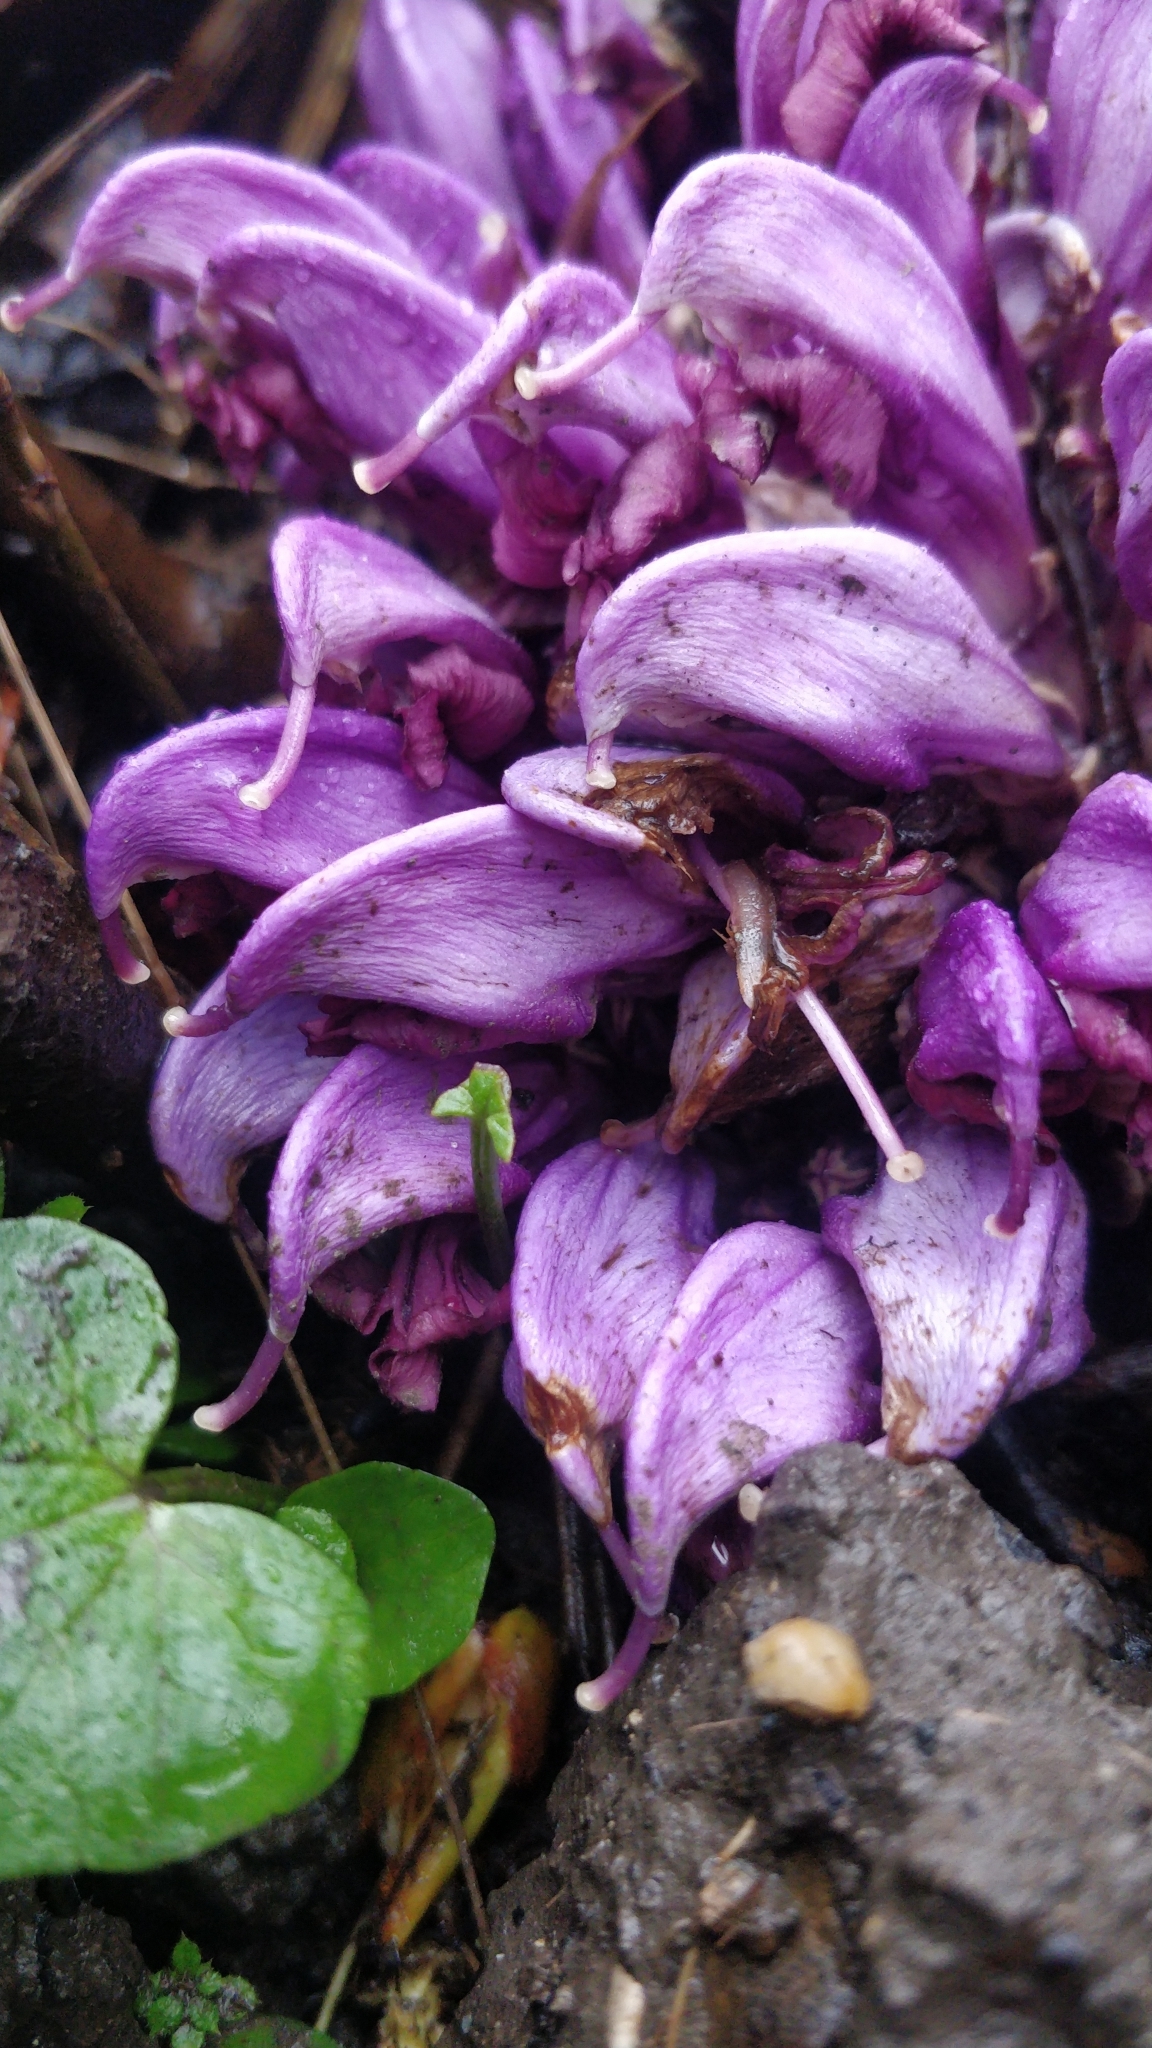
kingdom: Plantae
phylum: Tracheophyta
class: Magnoliopsida
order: Lamiales
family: Orobanchaceae
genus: Lathraea
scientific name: Lathraea clandestina
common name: Purple toothwort
